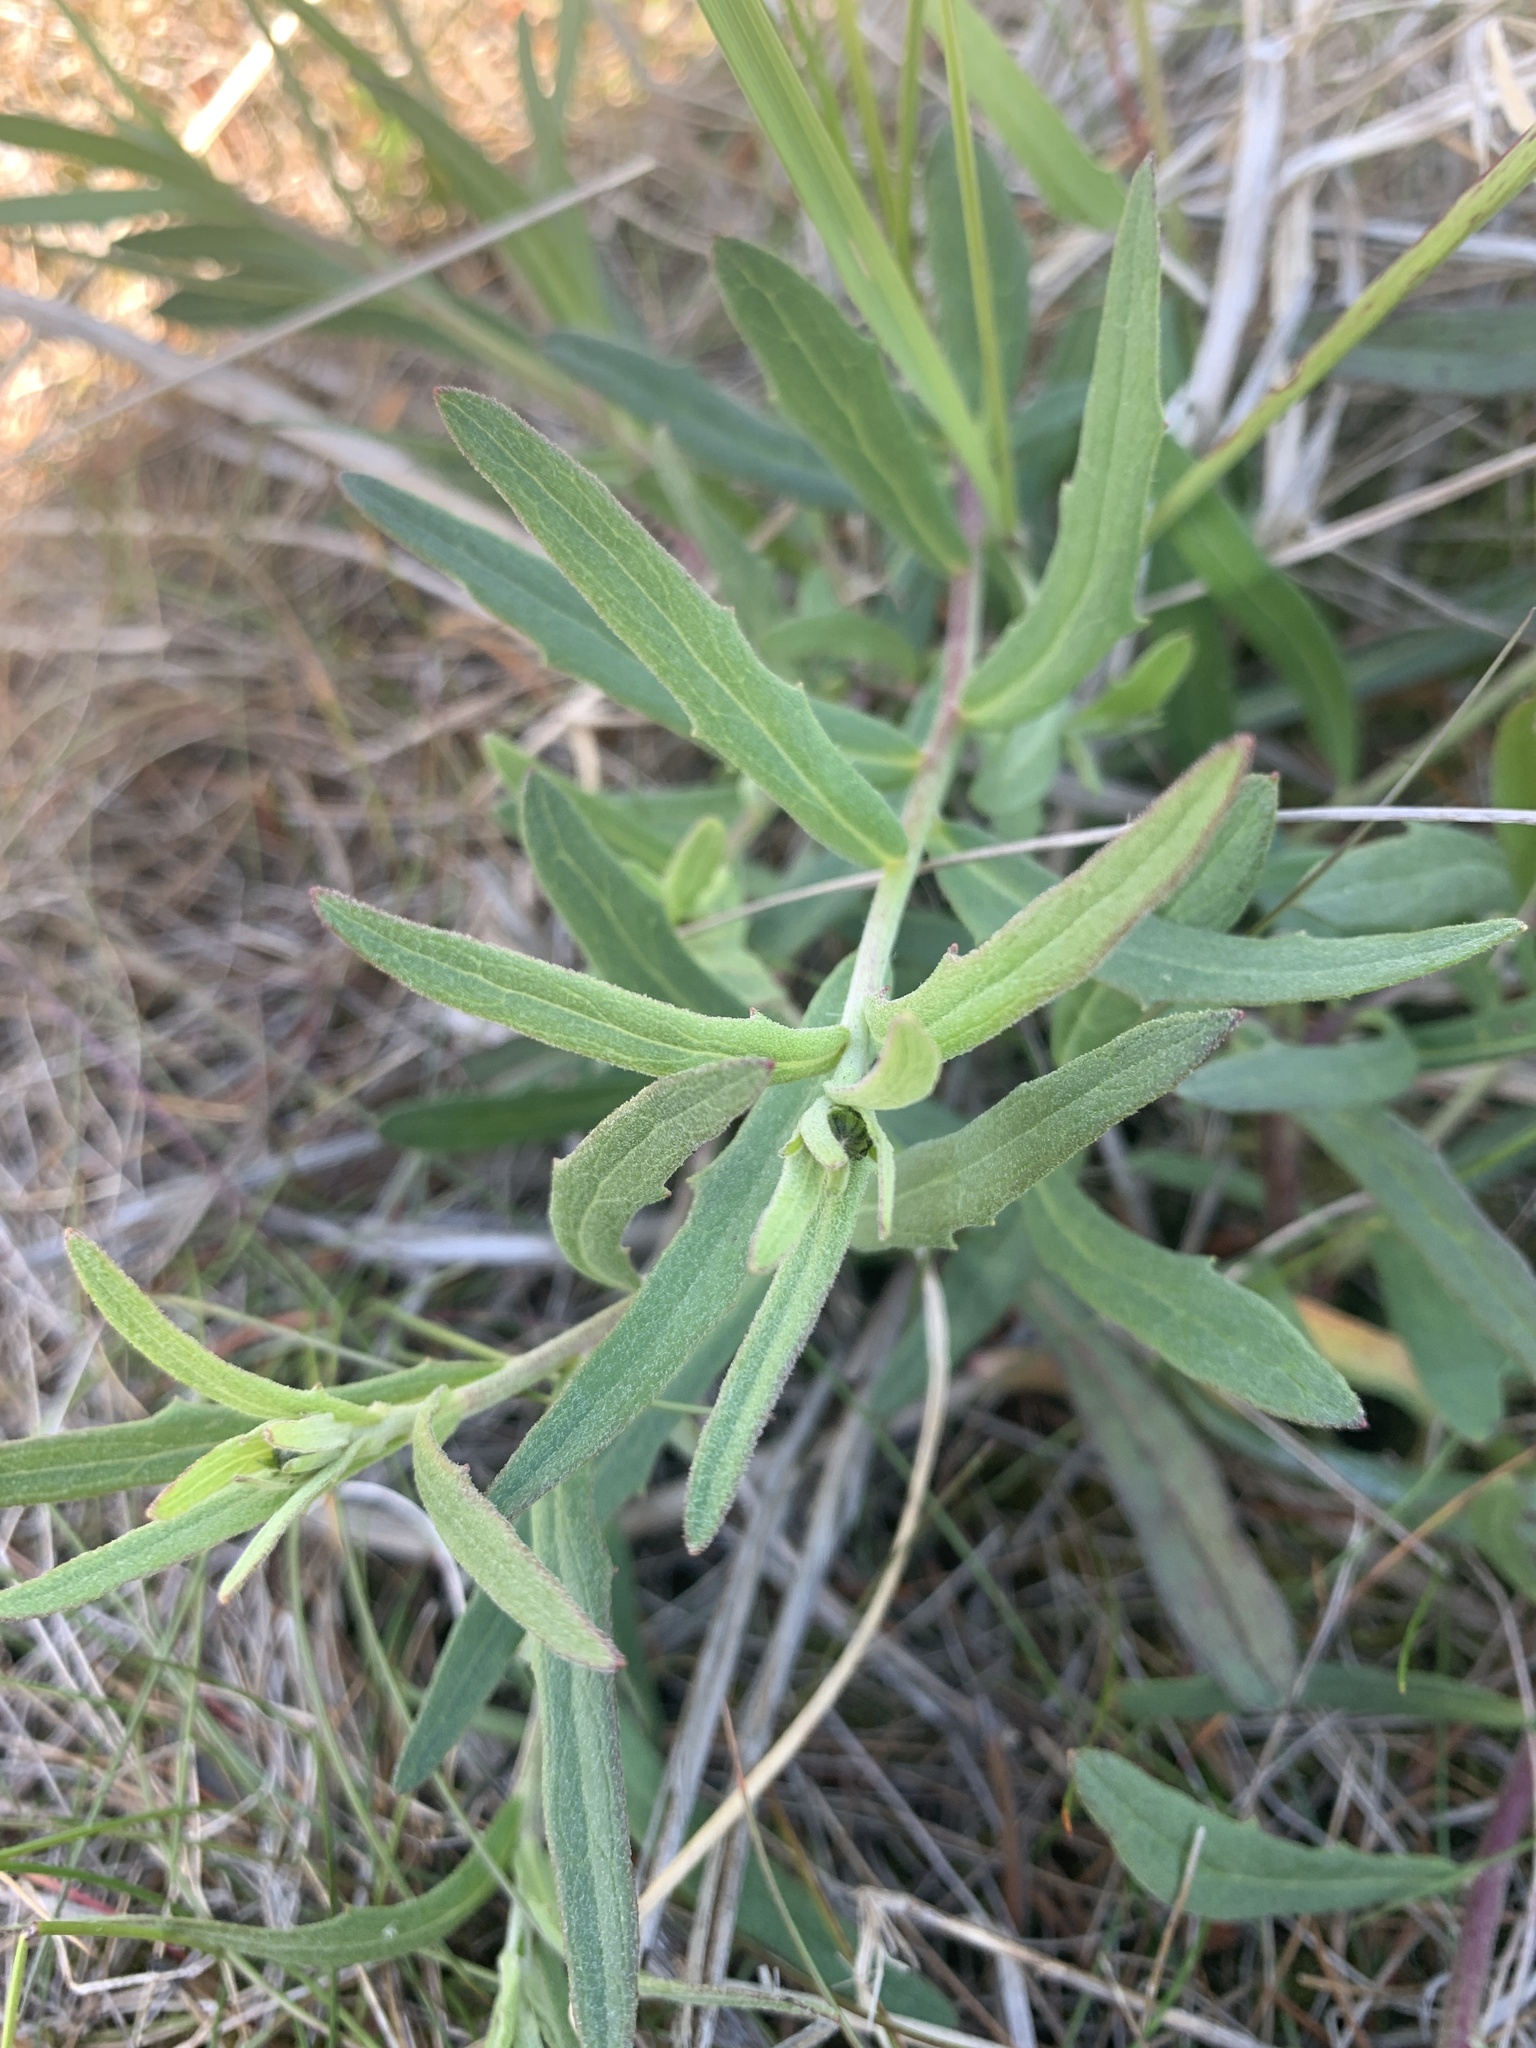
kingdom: Plantae
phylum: Tracheophyta
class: Magnoliopsida
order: Asterales
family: Asteraceae
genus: Hieracium
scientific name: Hieracium umbellatum
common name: Northern hawkweed
